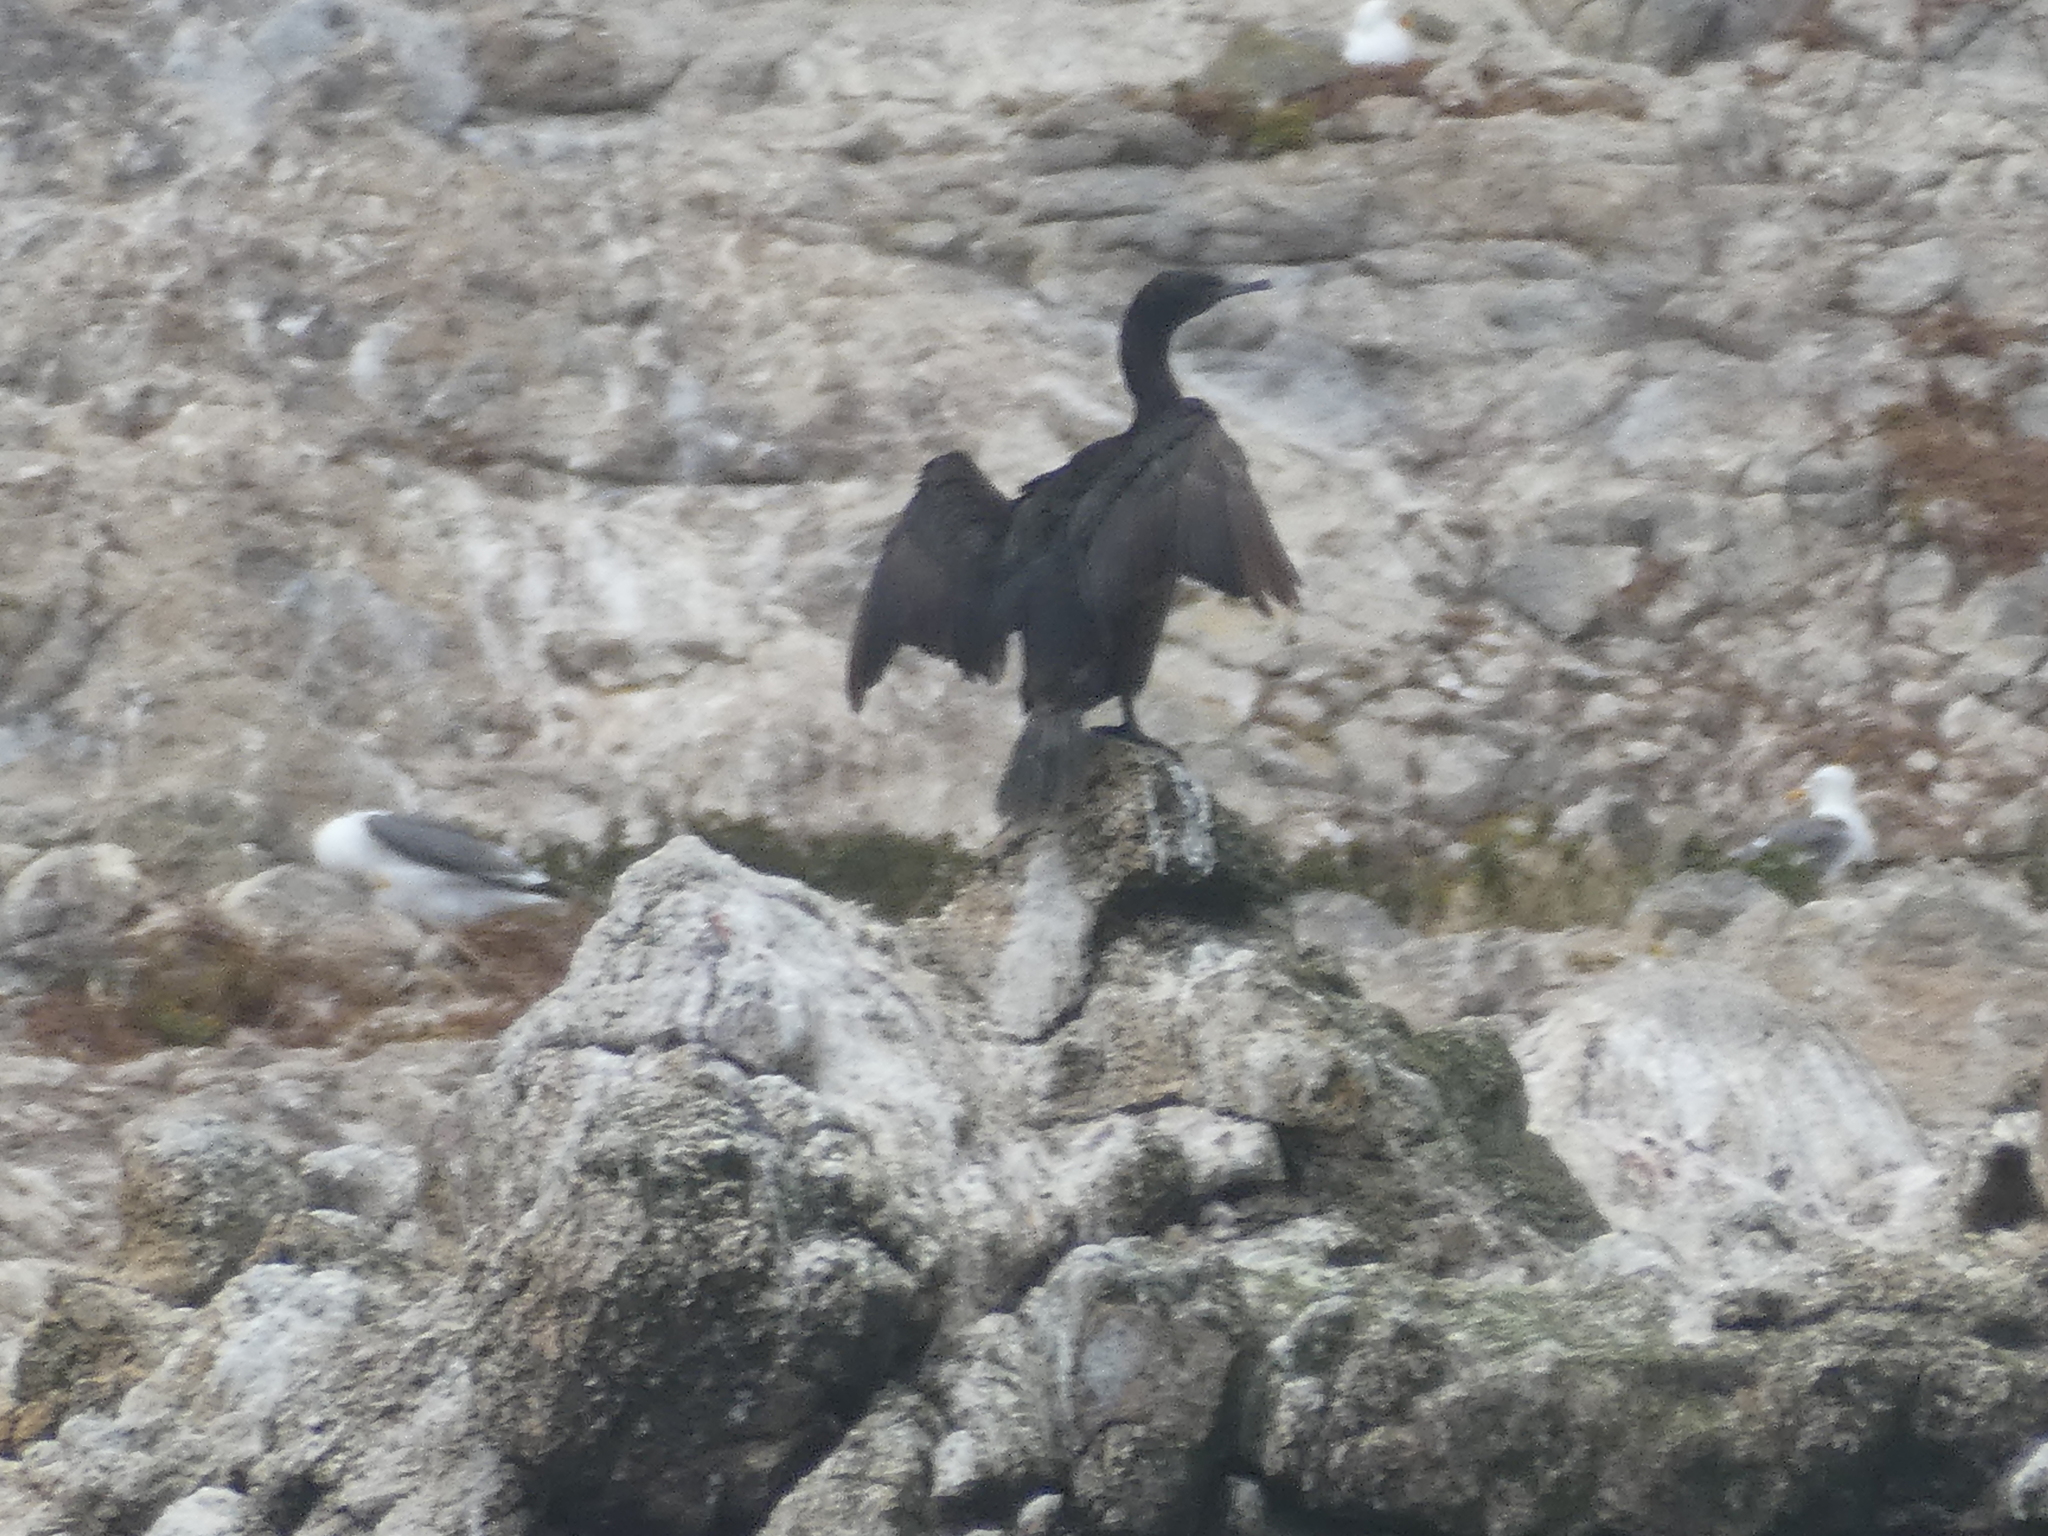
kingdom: Animalia
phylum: Chordata
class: Aves
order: Suliformes
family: Phalacrocoracidae
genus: Urile
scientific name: Urile penicillatus
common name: Brandt's cormorant
